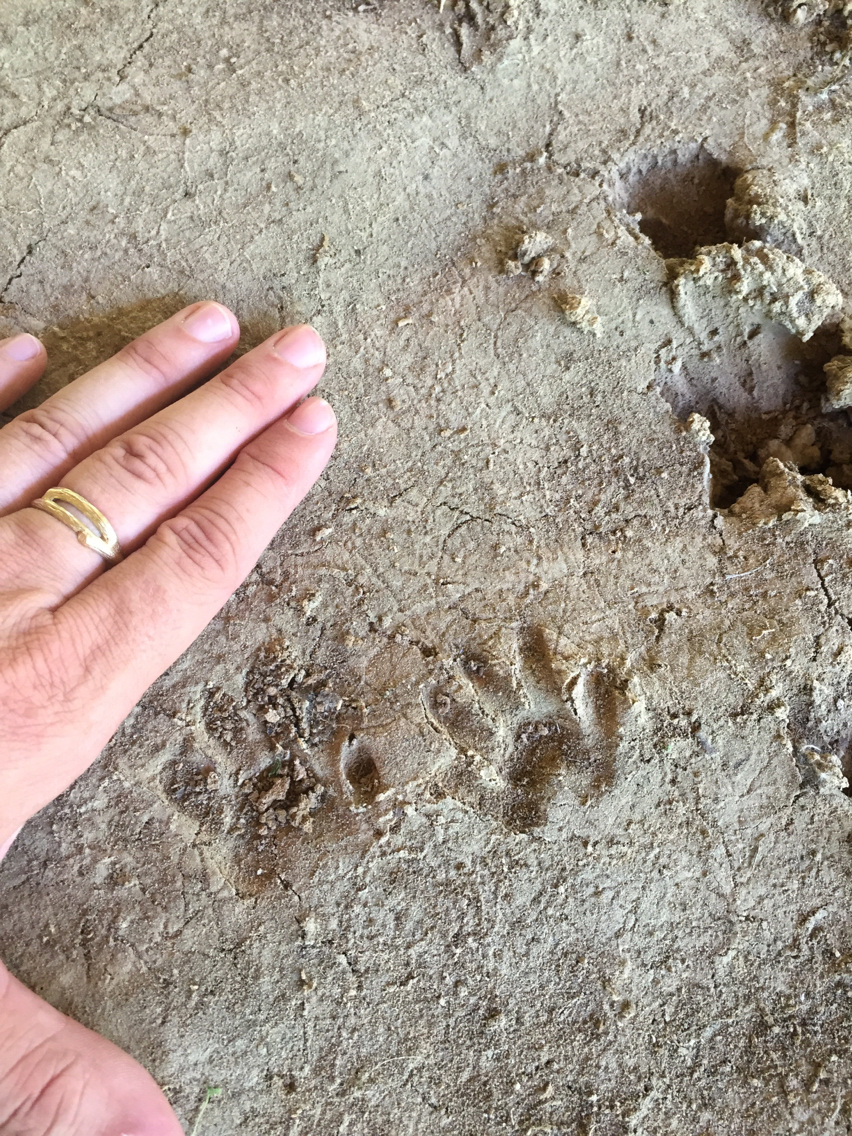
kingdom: Animalia
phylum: Chordata
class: Mammalia
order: Carnivora
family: Procyonidae
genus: Procyon
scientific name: Procyon lotor
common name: Raccoon
